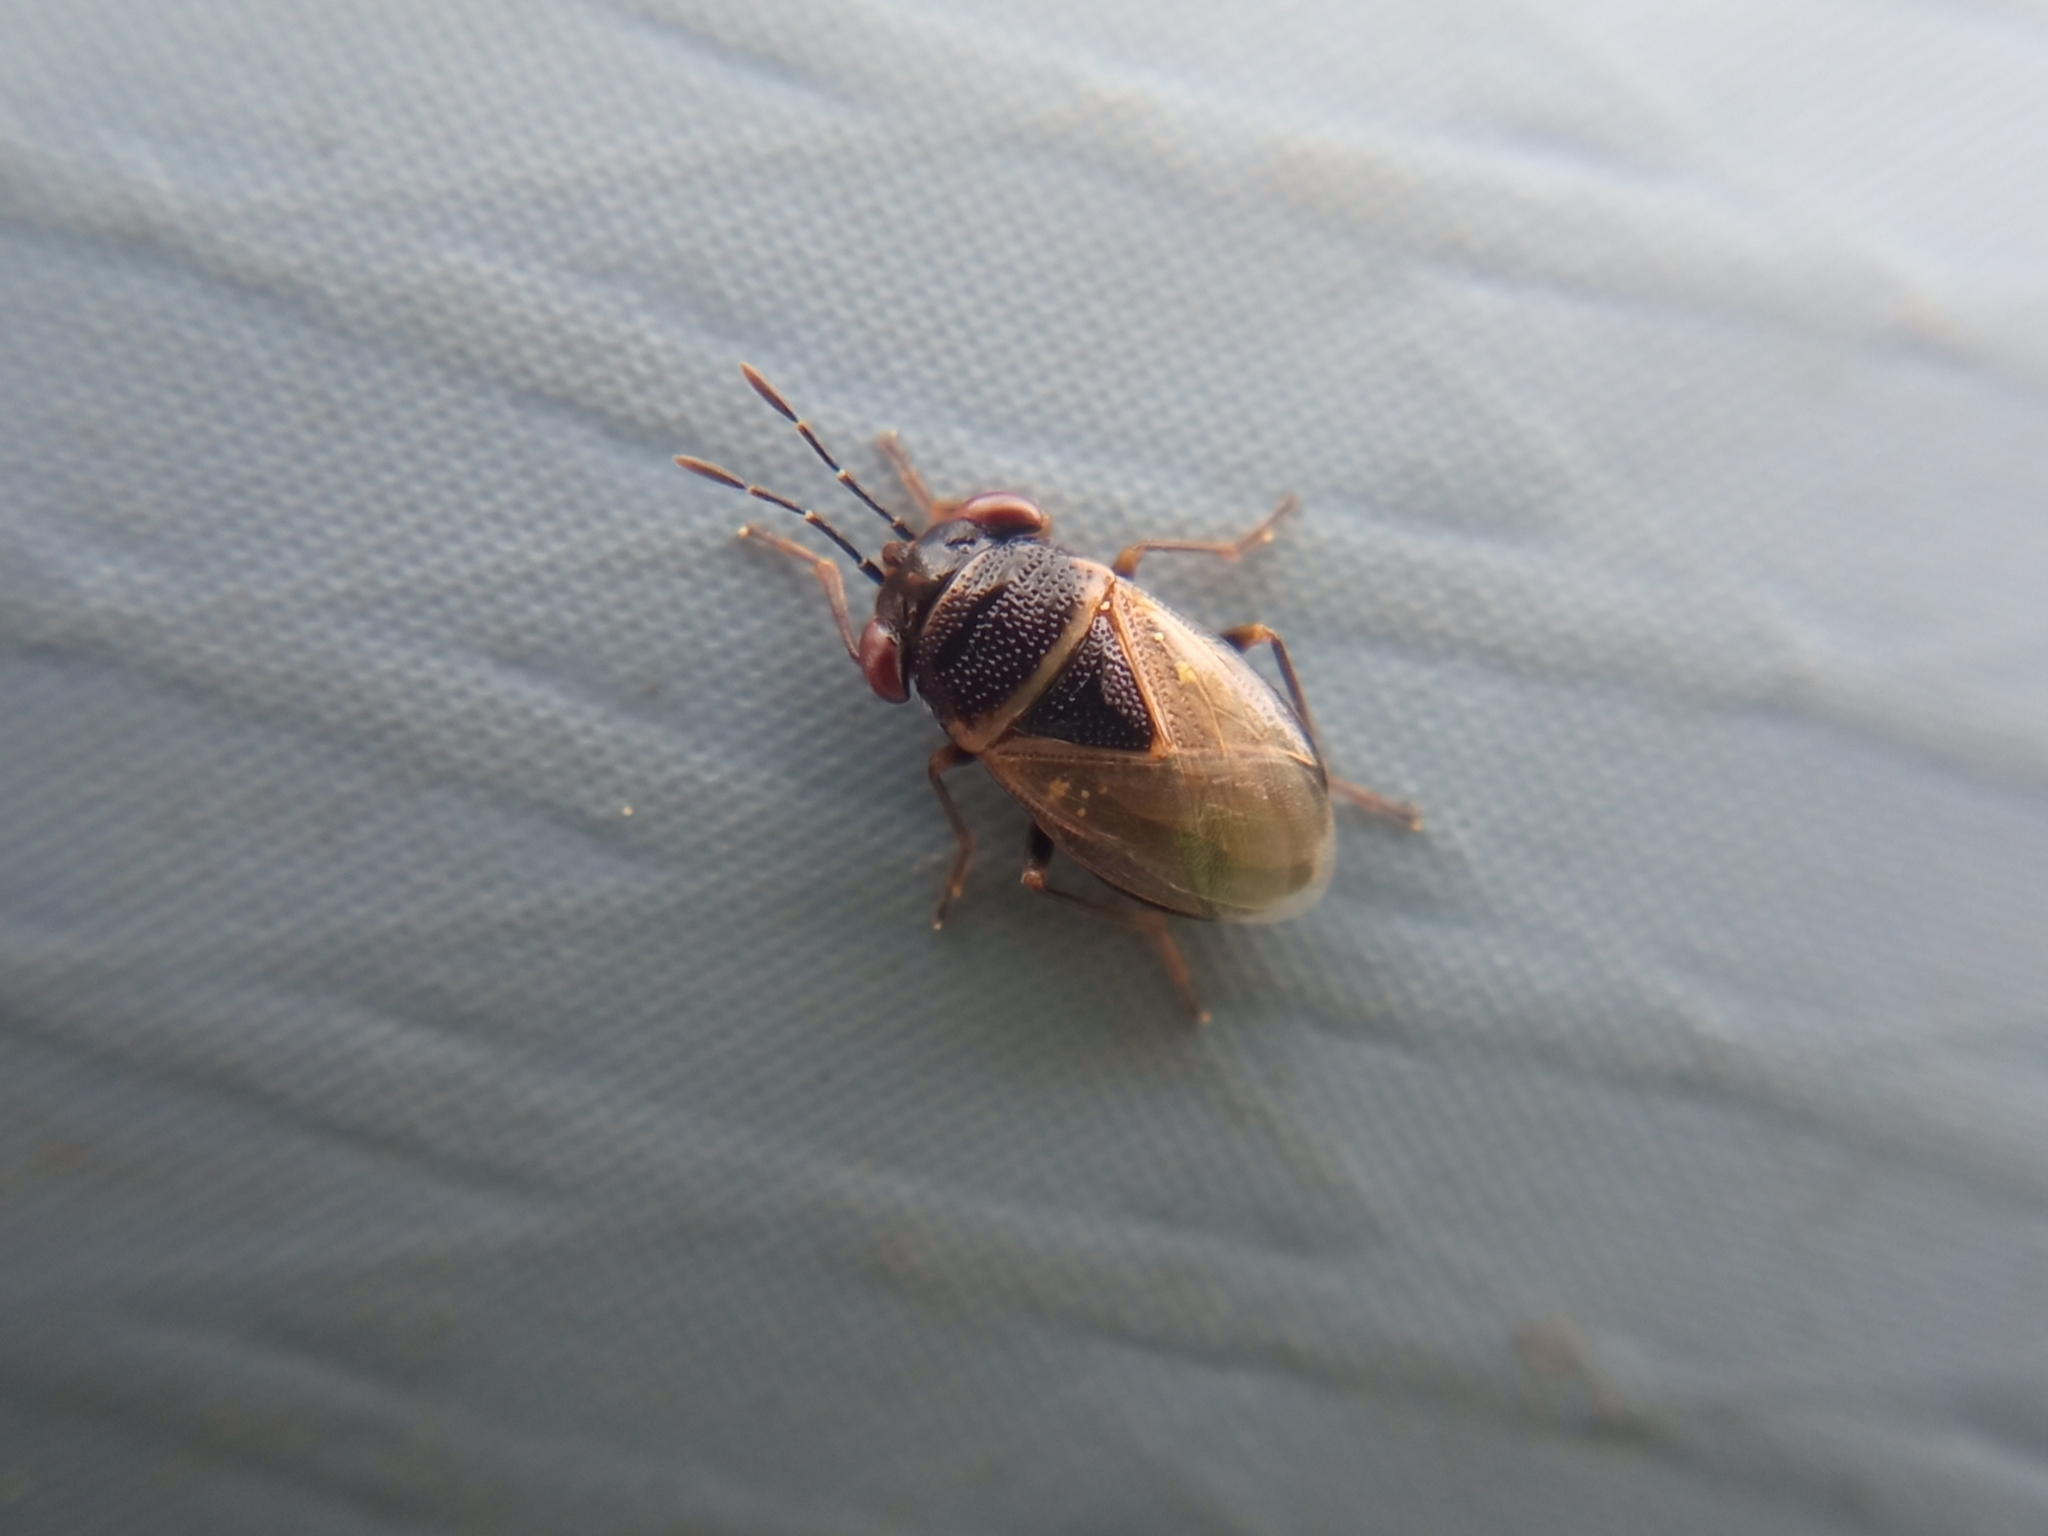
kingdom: Animalia
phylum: Arthropoda
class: Insecta
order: Hemiptera
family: Geocoridae
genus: Geocoris
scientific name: Geocoris megacephalus
